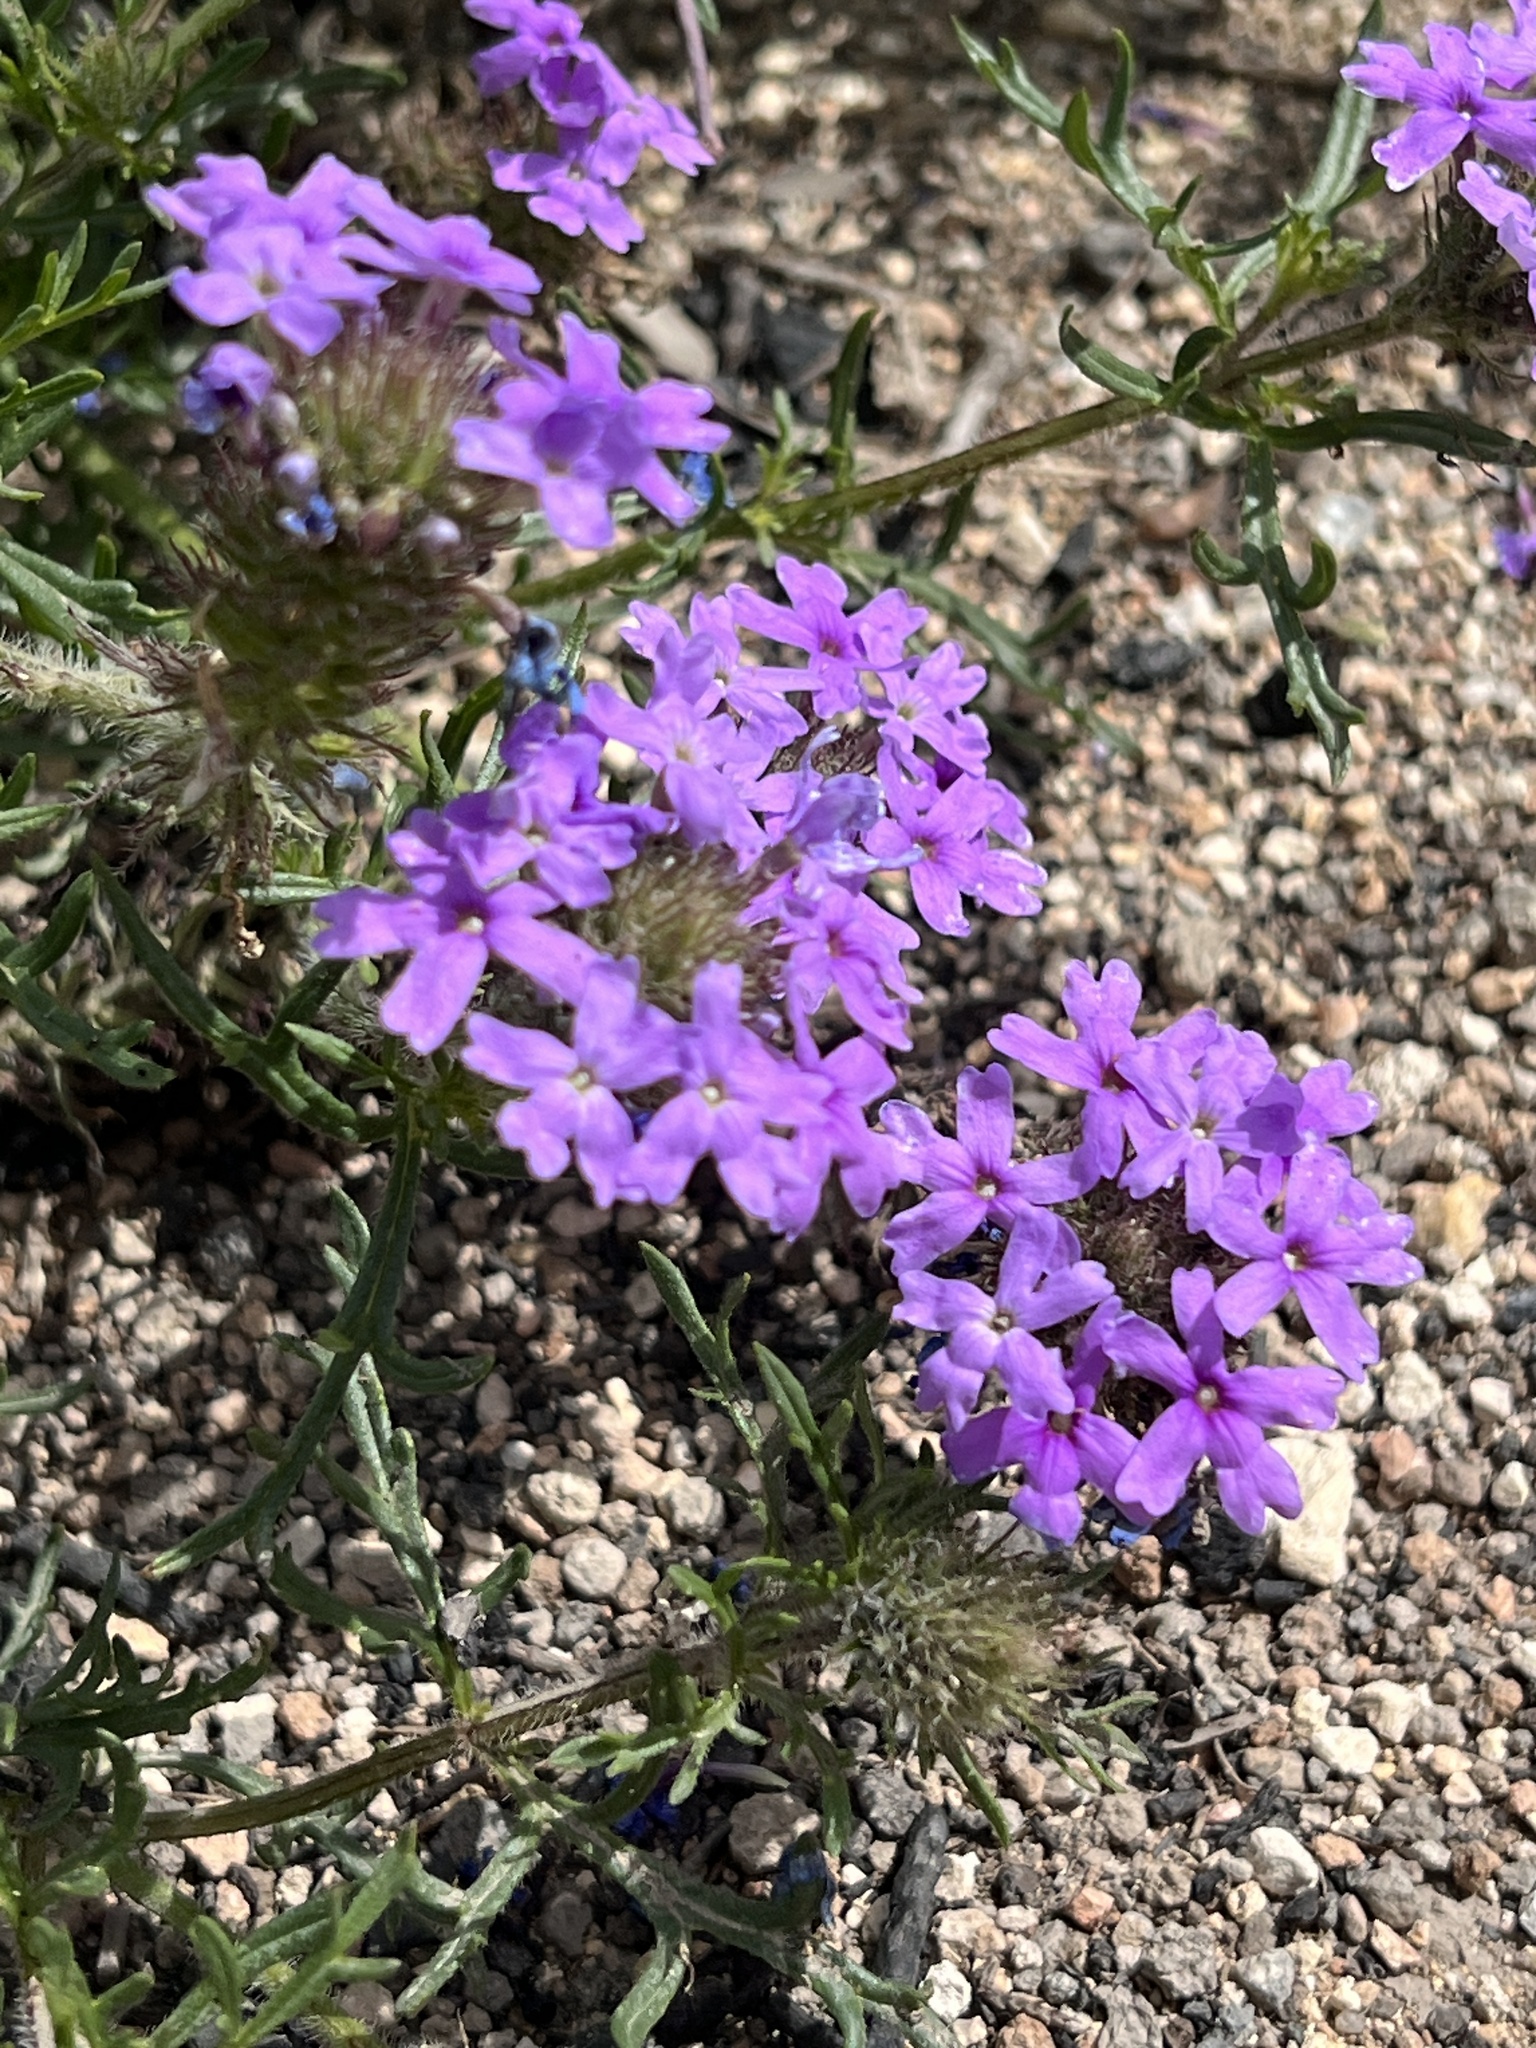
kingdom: Plantae
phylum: Tracheophyta
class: Magnoliopsida
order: Lamiales
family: Verbenaceae
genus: Verbena
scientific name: Verbena bipinnatifida
